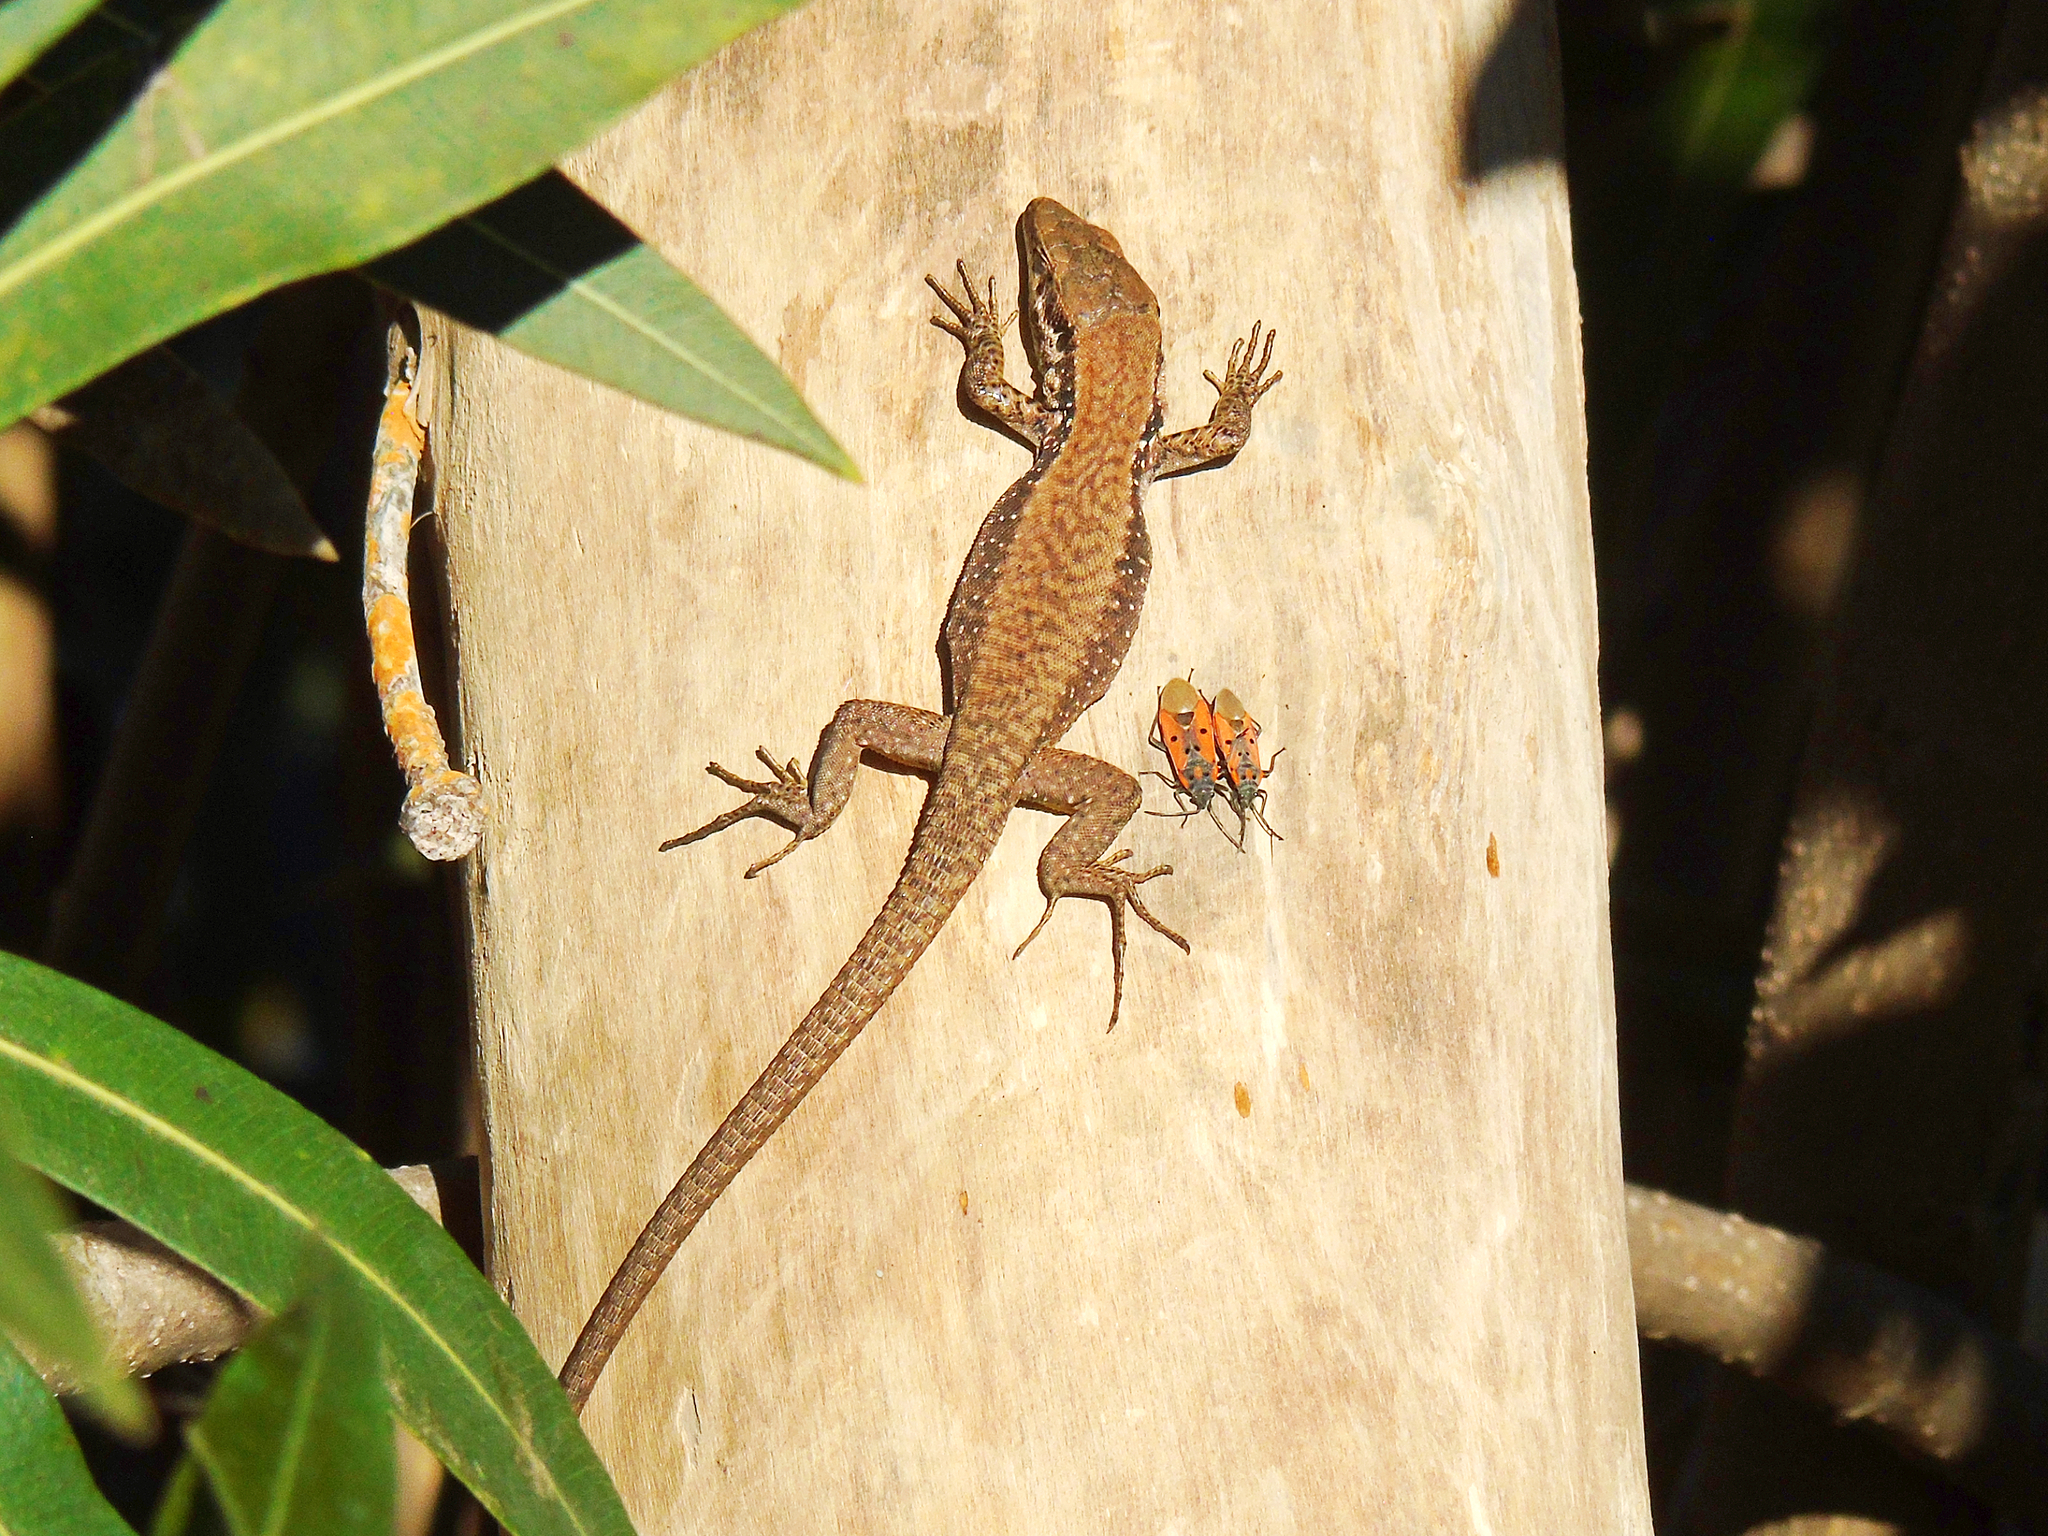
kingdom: Animalia
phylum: Chordata
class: Squamata
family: Lacertidae
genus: Phoenicolacerta
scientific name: Phoenicolacerta laevis
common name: Lebanon lizard
